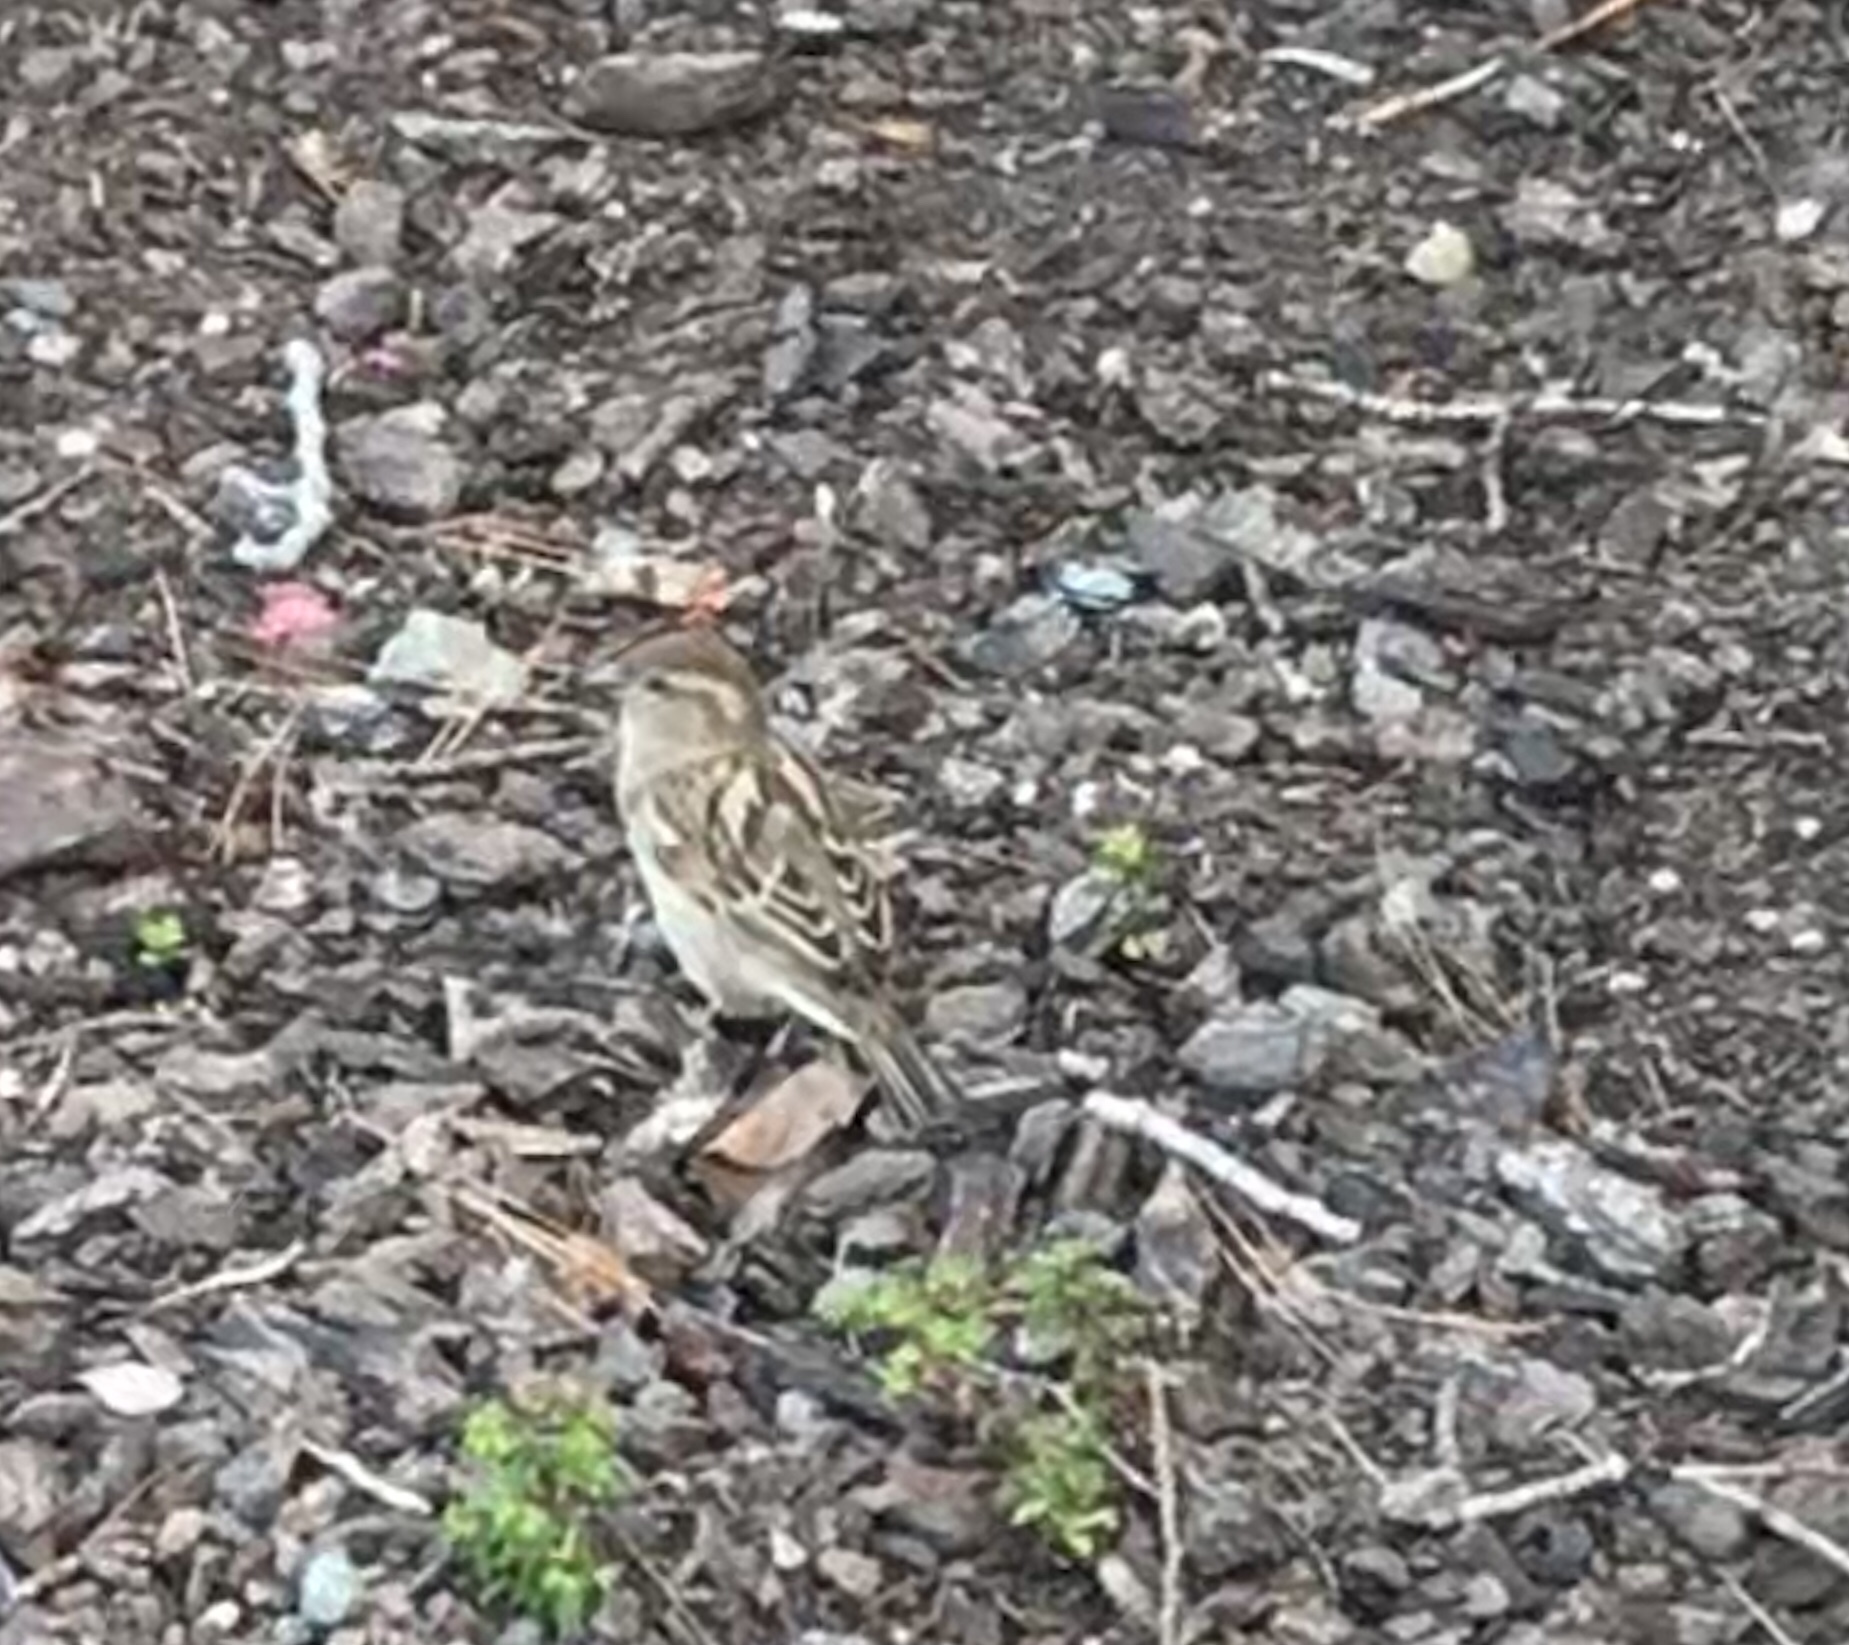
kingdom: Animalia
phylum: Chordata
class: Aves
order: Passeriformes
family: Passeridae
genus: Passer
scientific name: Passer domesticus
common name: House sparrow
